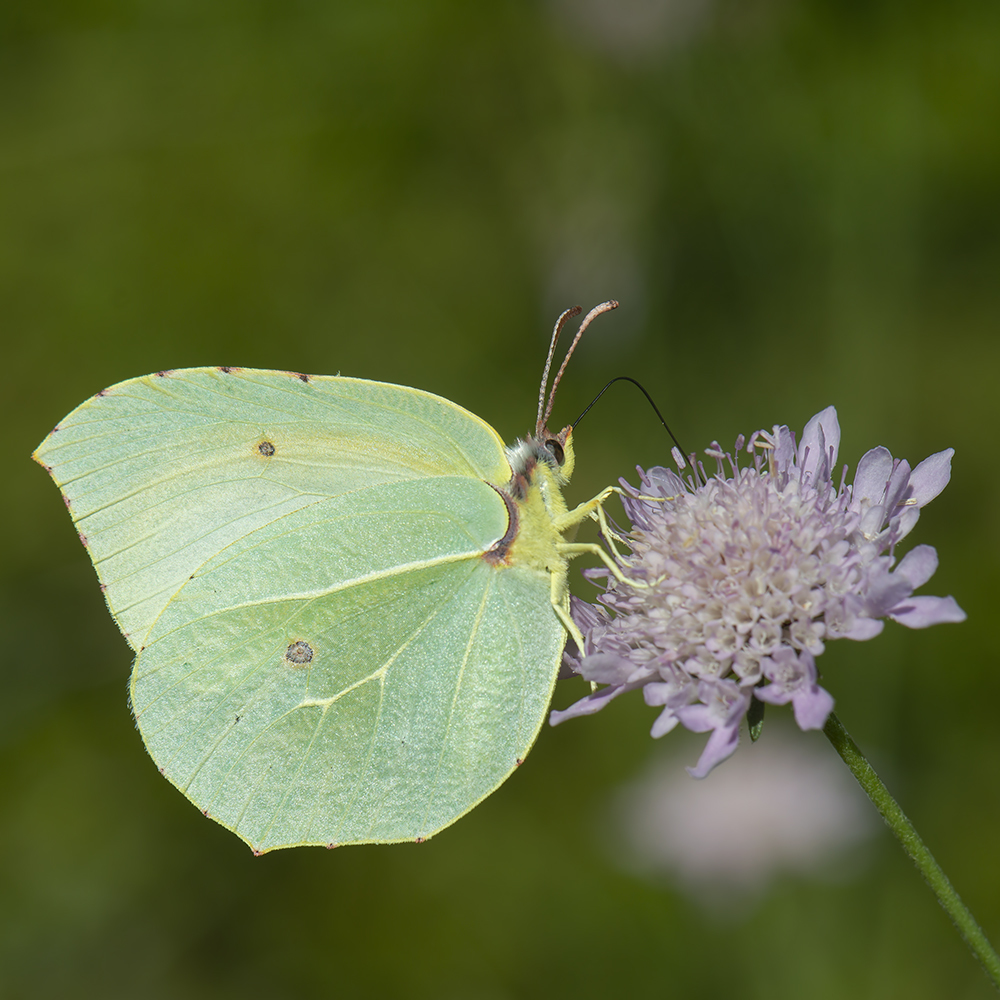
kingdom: Animalia
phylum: Arthropoda
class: Insecta
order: Lepidoptera
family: Pieridae
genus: Gonepteryx
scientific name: Gonepteryx cleopatra
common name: Cleopatra
